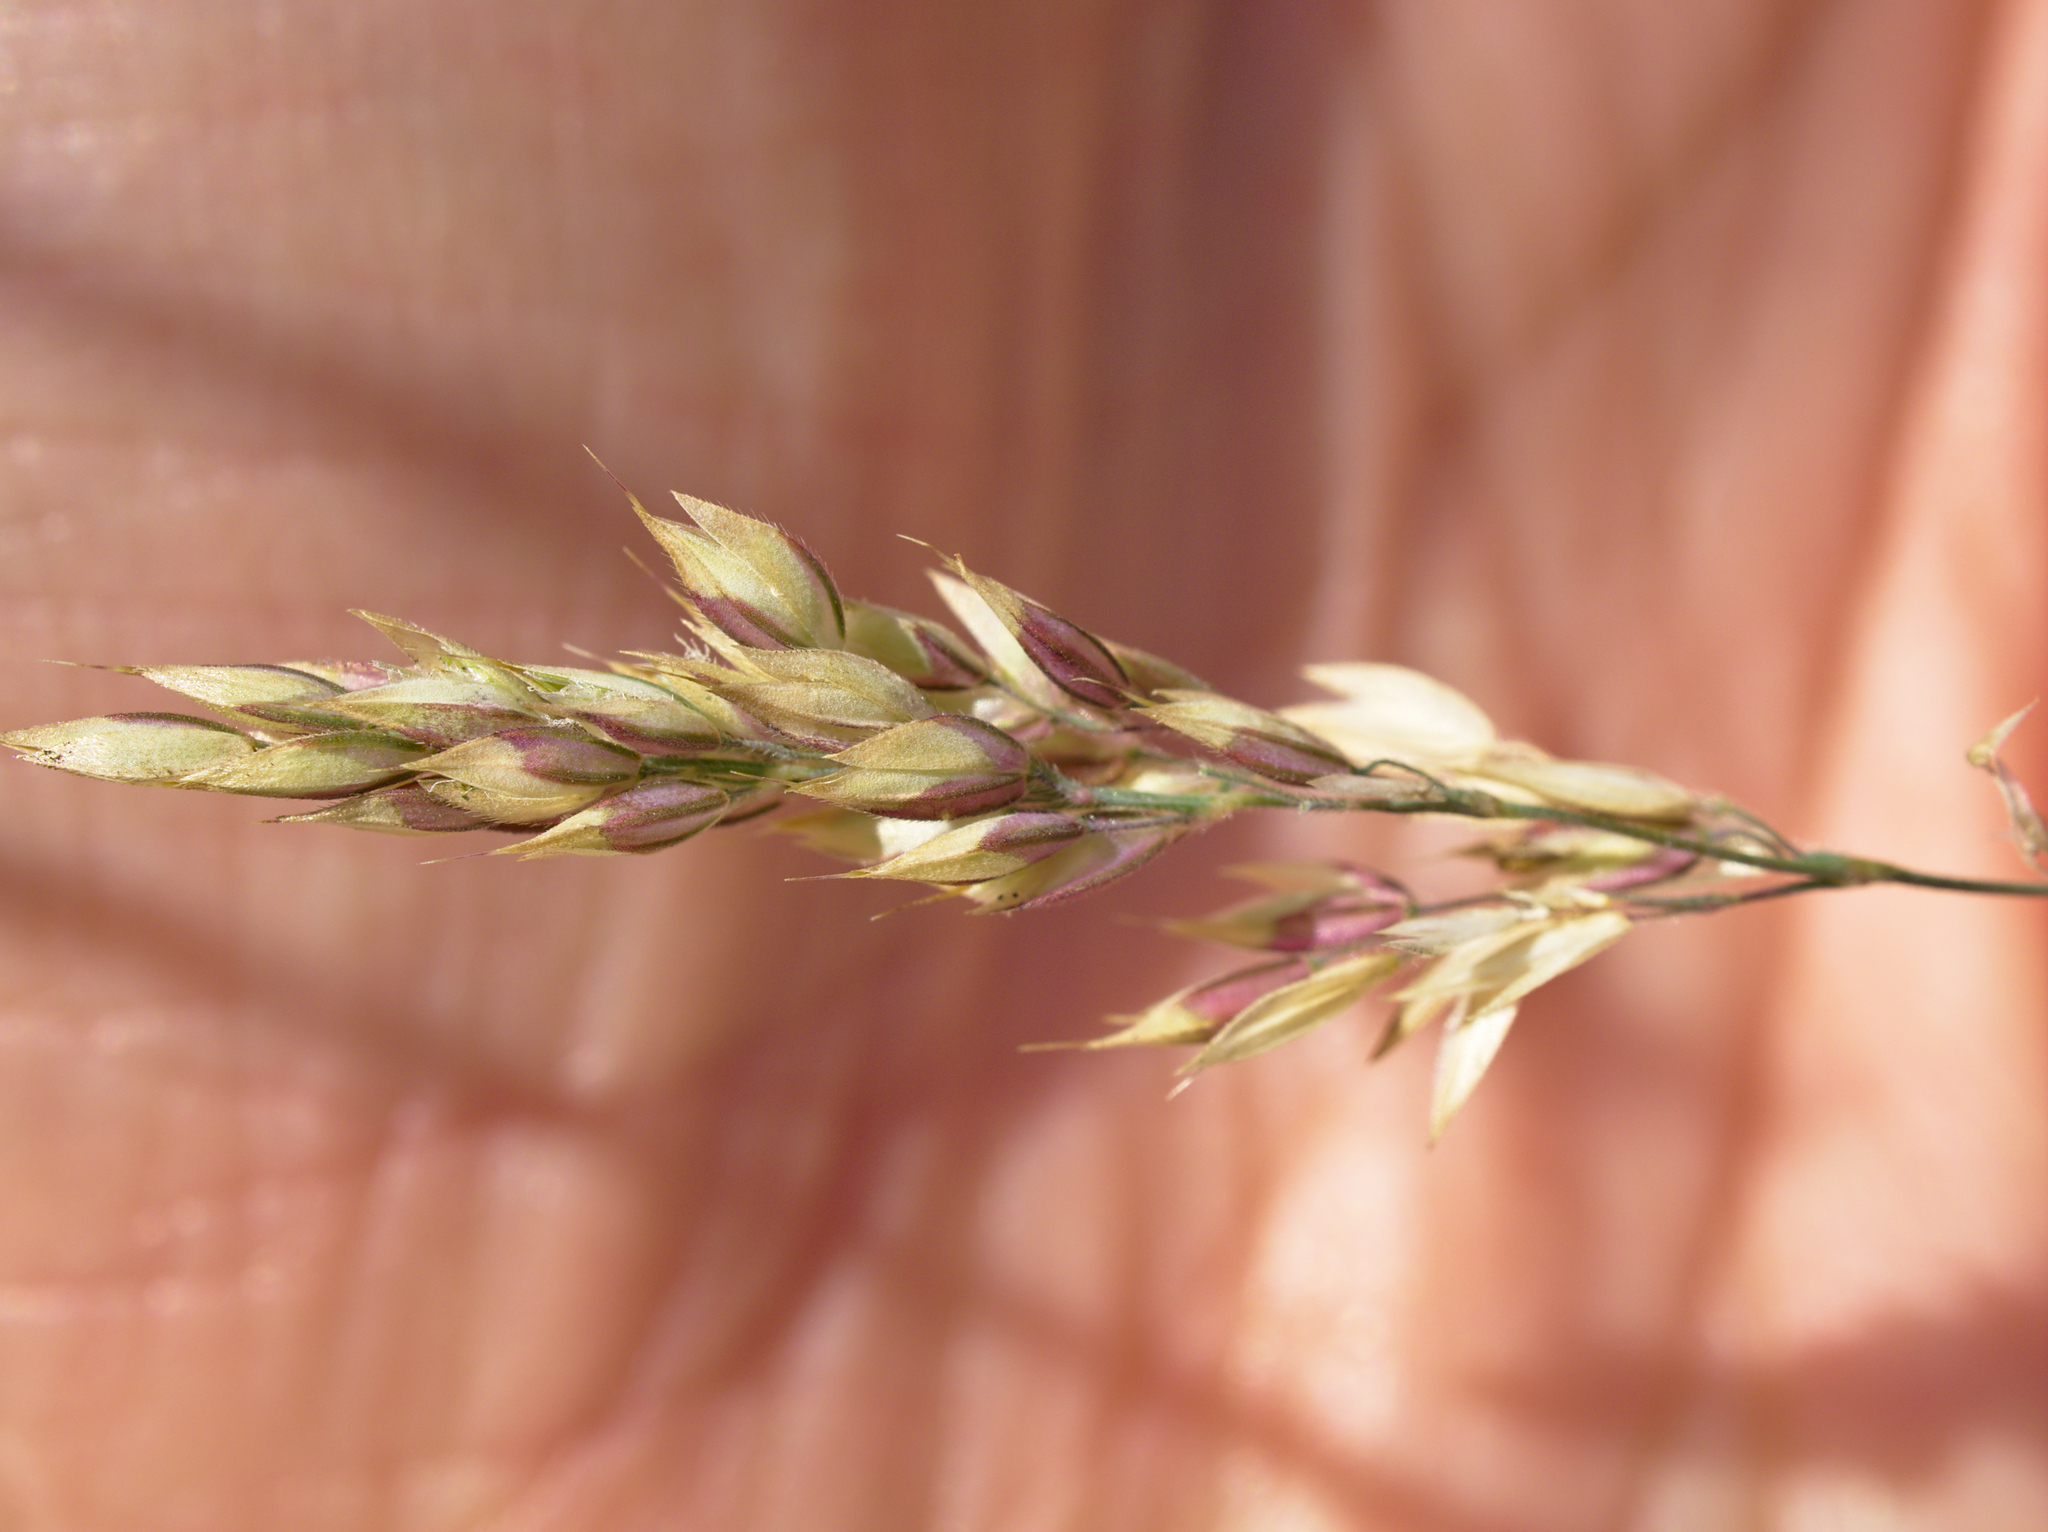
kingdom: Plantae
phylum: Tracheophyta
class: Liliopsida
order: Poales
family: Poaceae
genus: Holcus
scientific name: Holcus mollis
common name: Creeping velvetgrass
